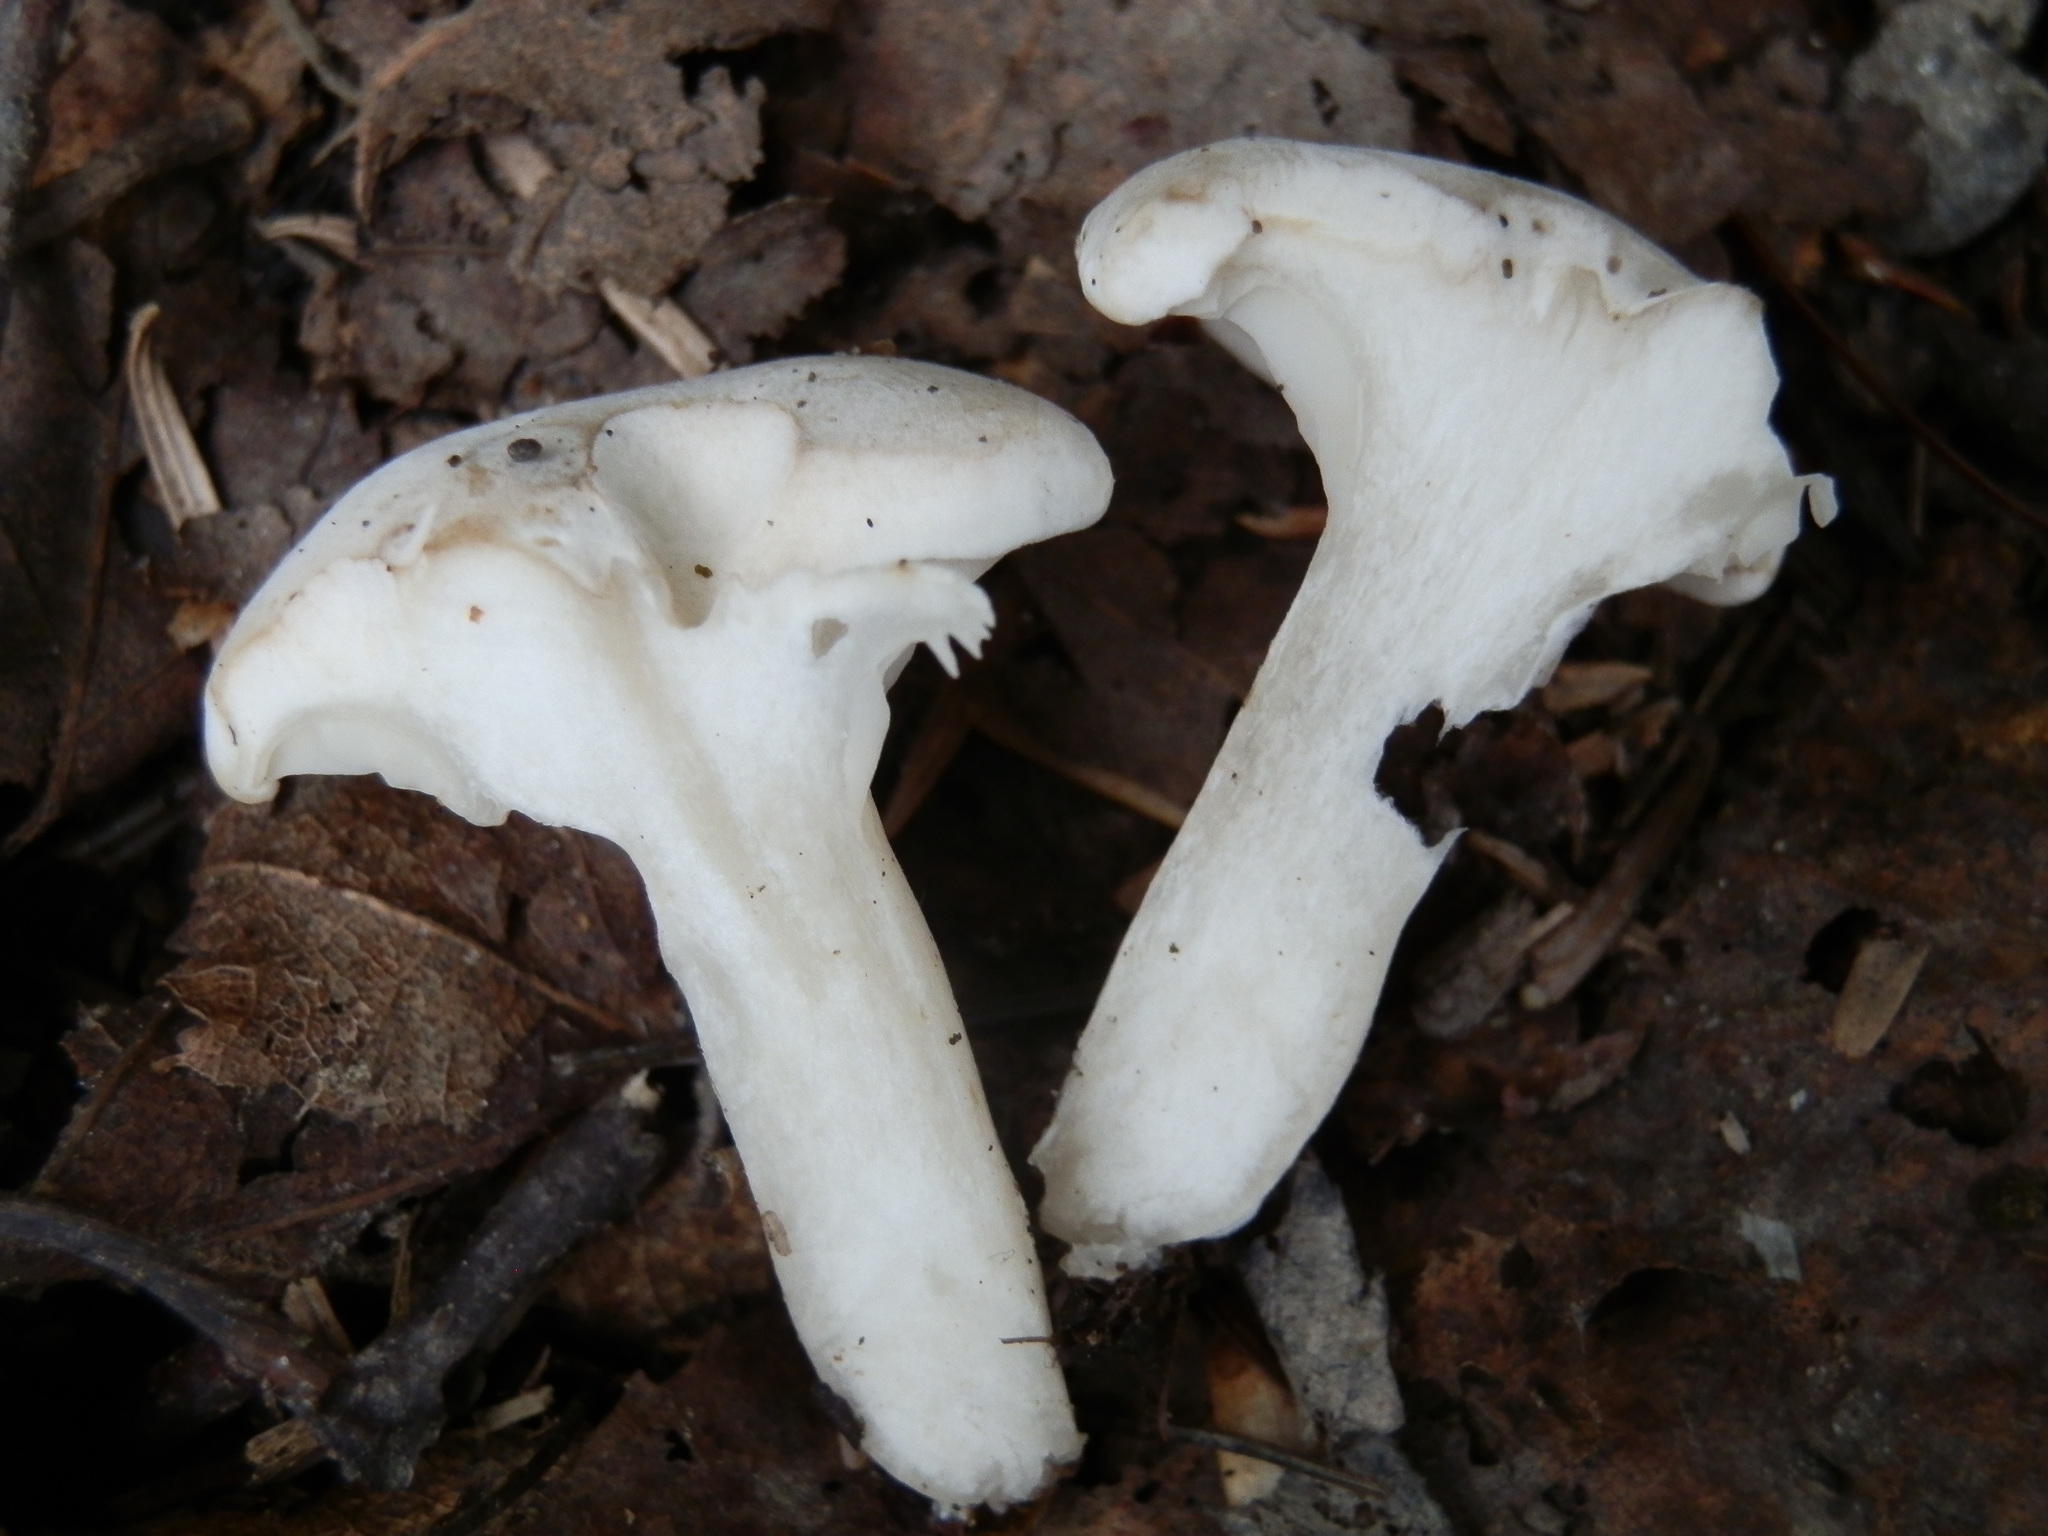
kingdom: Fungi
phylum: Basidiomycota
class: Agaricomycetes
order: Agaricales
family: Entolomataceae
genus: Clitopilus
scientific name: Clitopilus prunulus
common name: The miller
